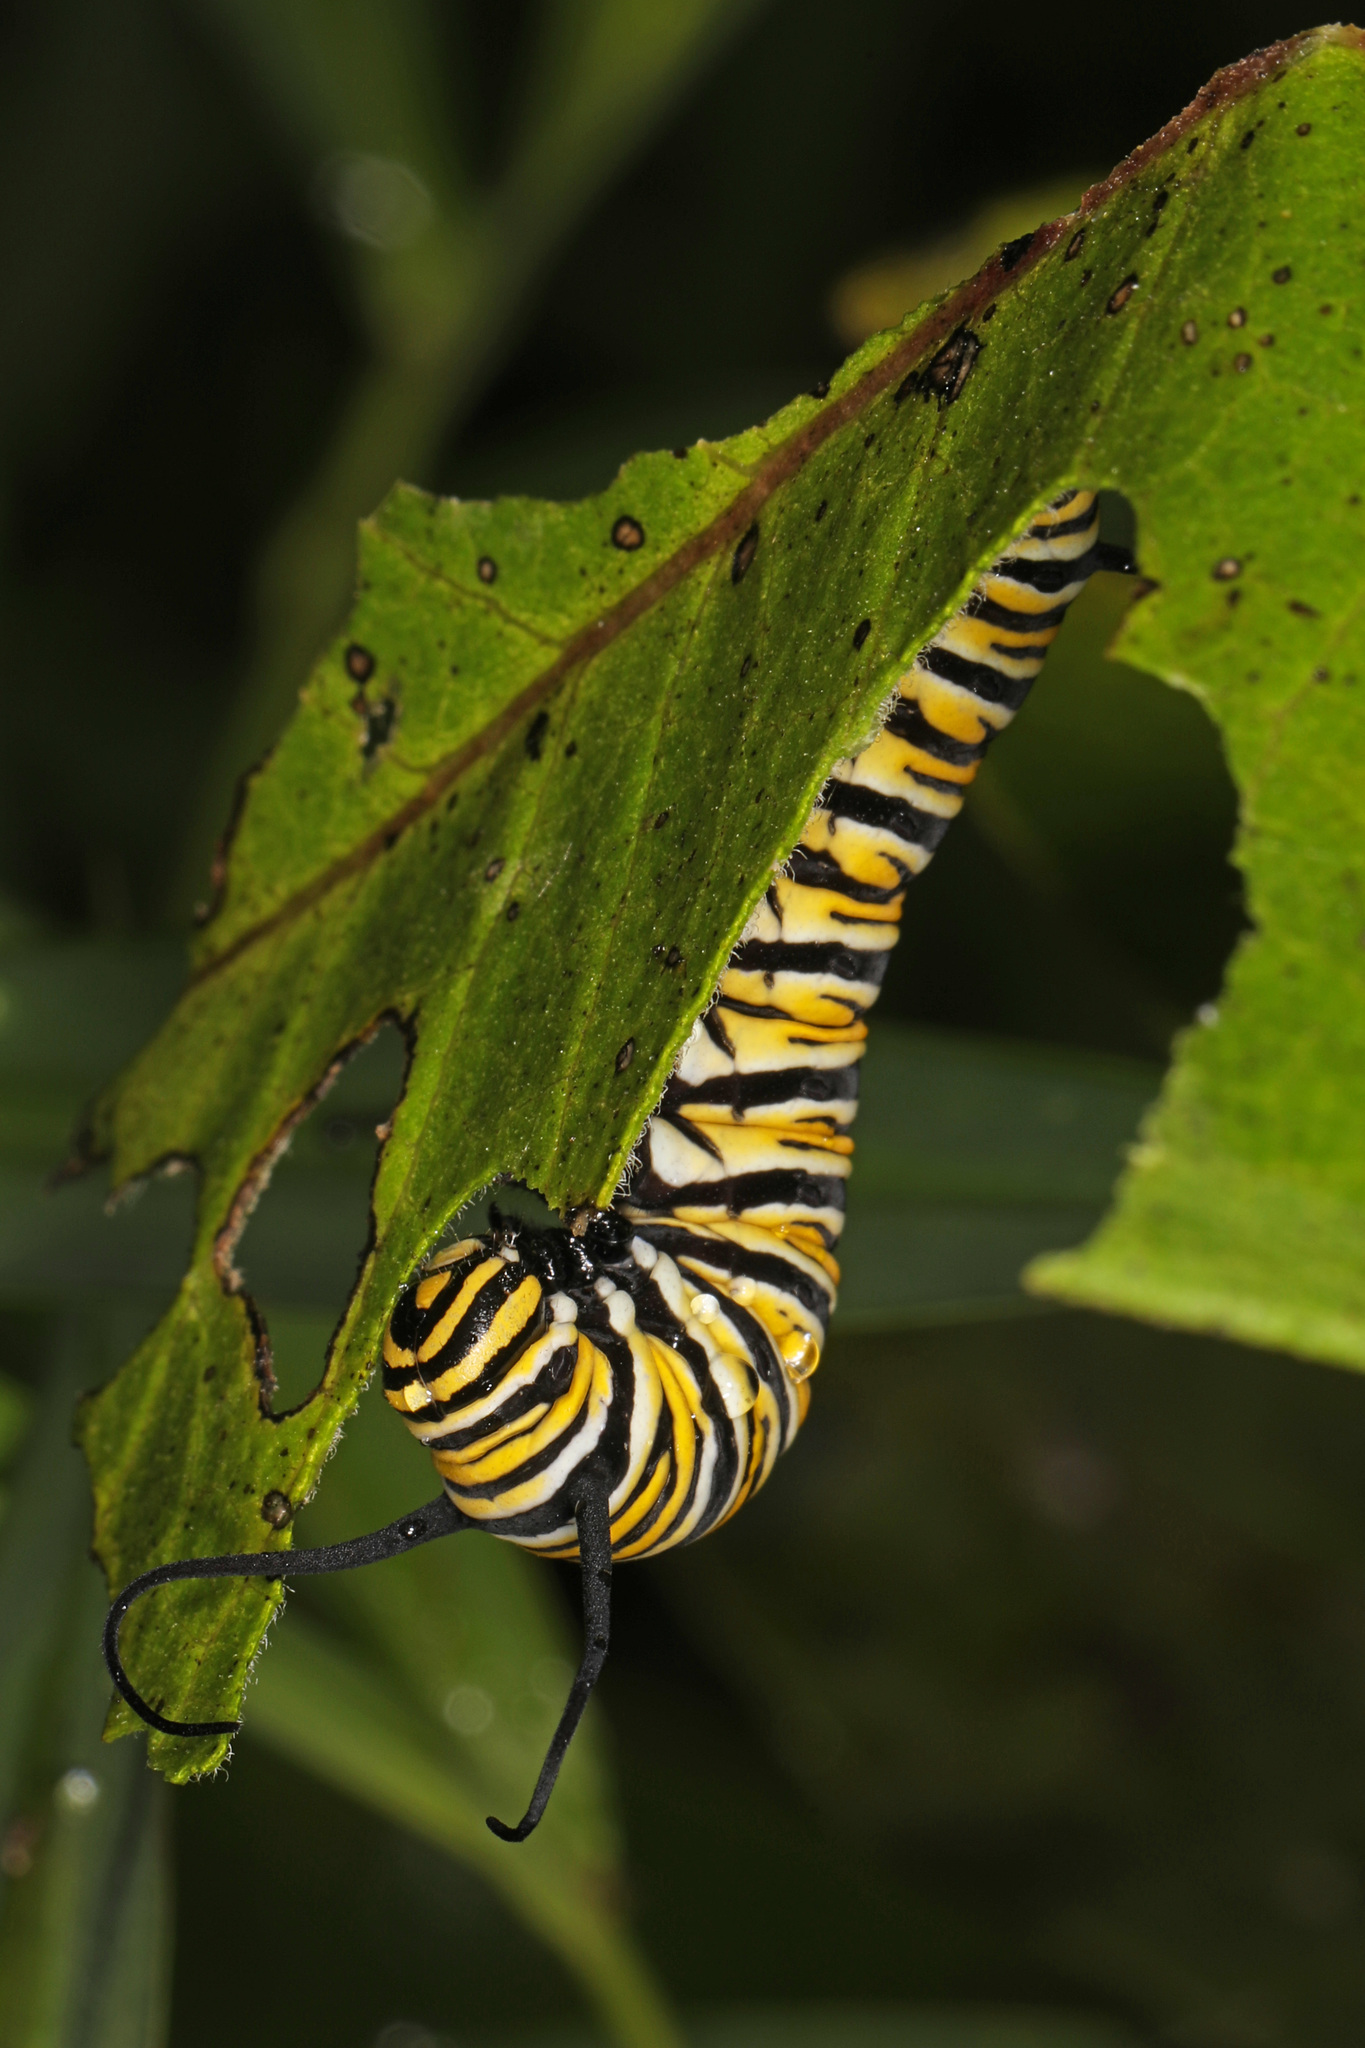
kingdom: Animalia
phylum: Arthropoda
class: Insecta
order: Lepidoptera
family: Nymphalidae
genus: Danaus
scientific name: Danaus plexippus
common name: Monarch
